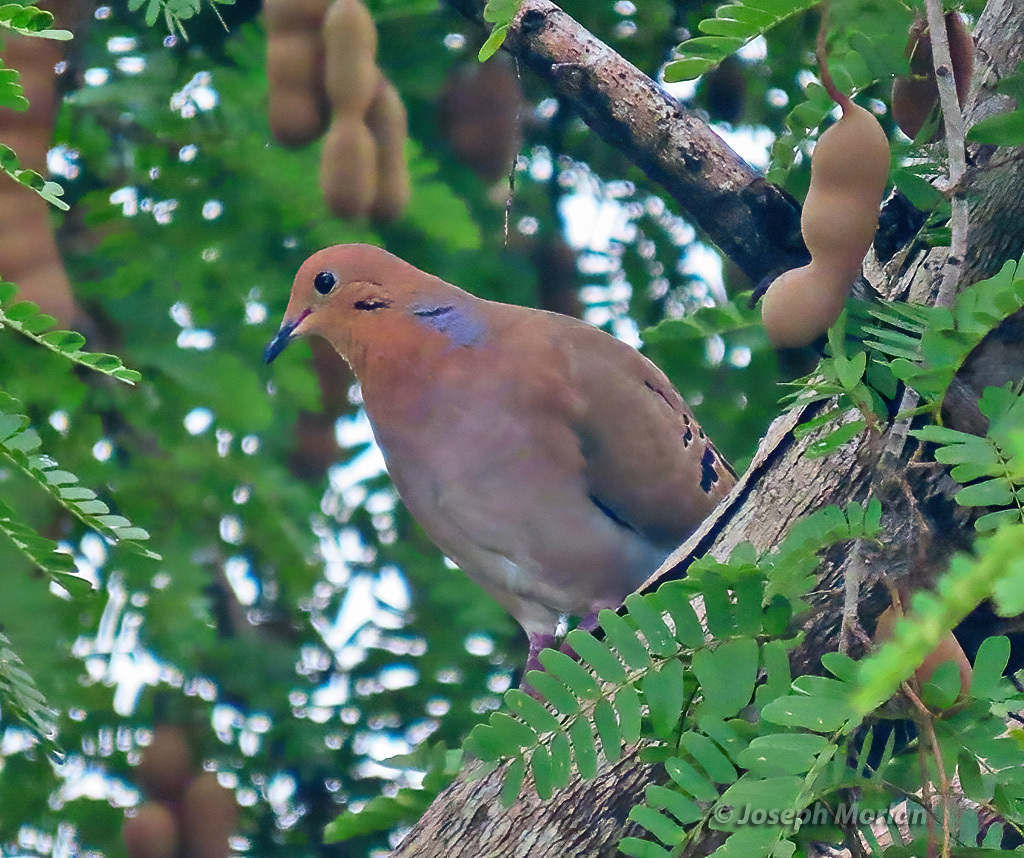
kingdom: Animalia
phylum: Chordata
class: Aves
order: Columbiformes
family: Columbidae
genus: Zenaida
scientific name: Zenaida aurita
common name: Zenaida dove
